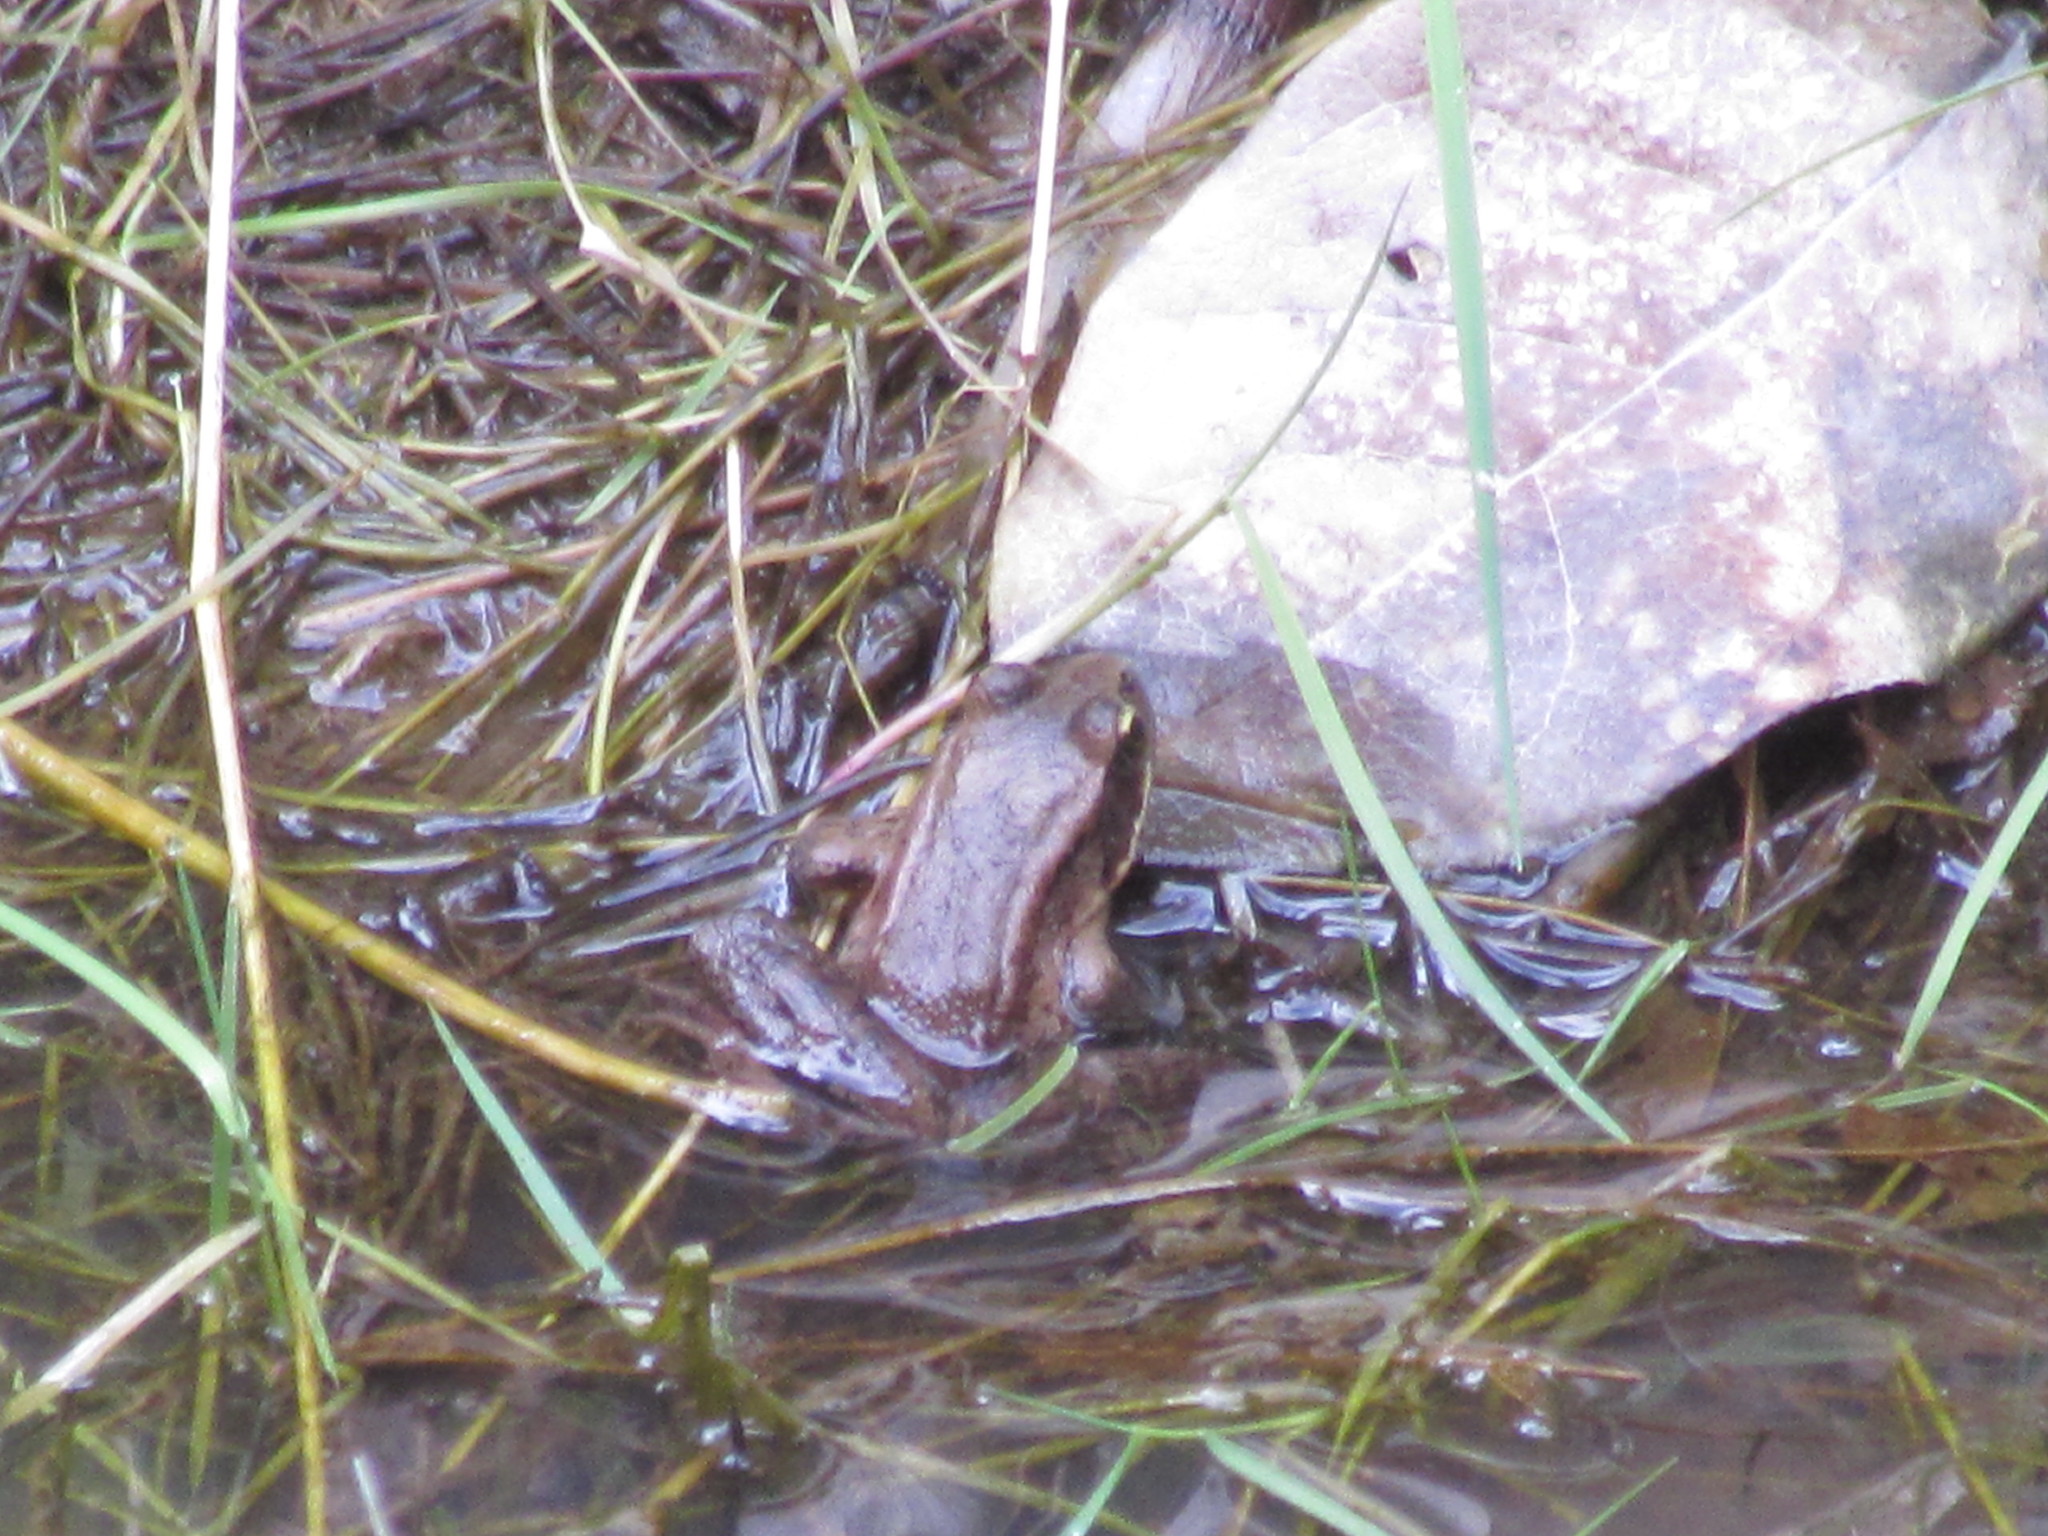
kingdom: Animalia
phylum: Chordata
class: Amphibia
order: Anura
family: Ranidae
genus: Rana
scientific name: Rana aurora
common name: Red-legged frog
